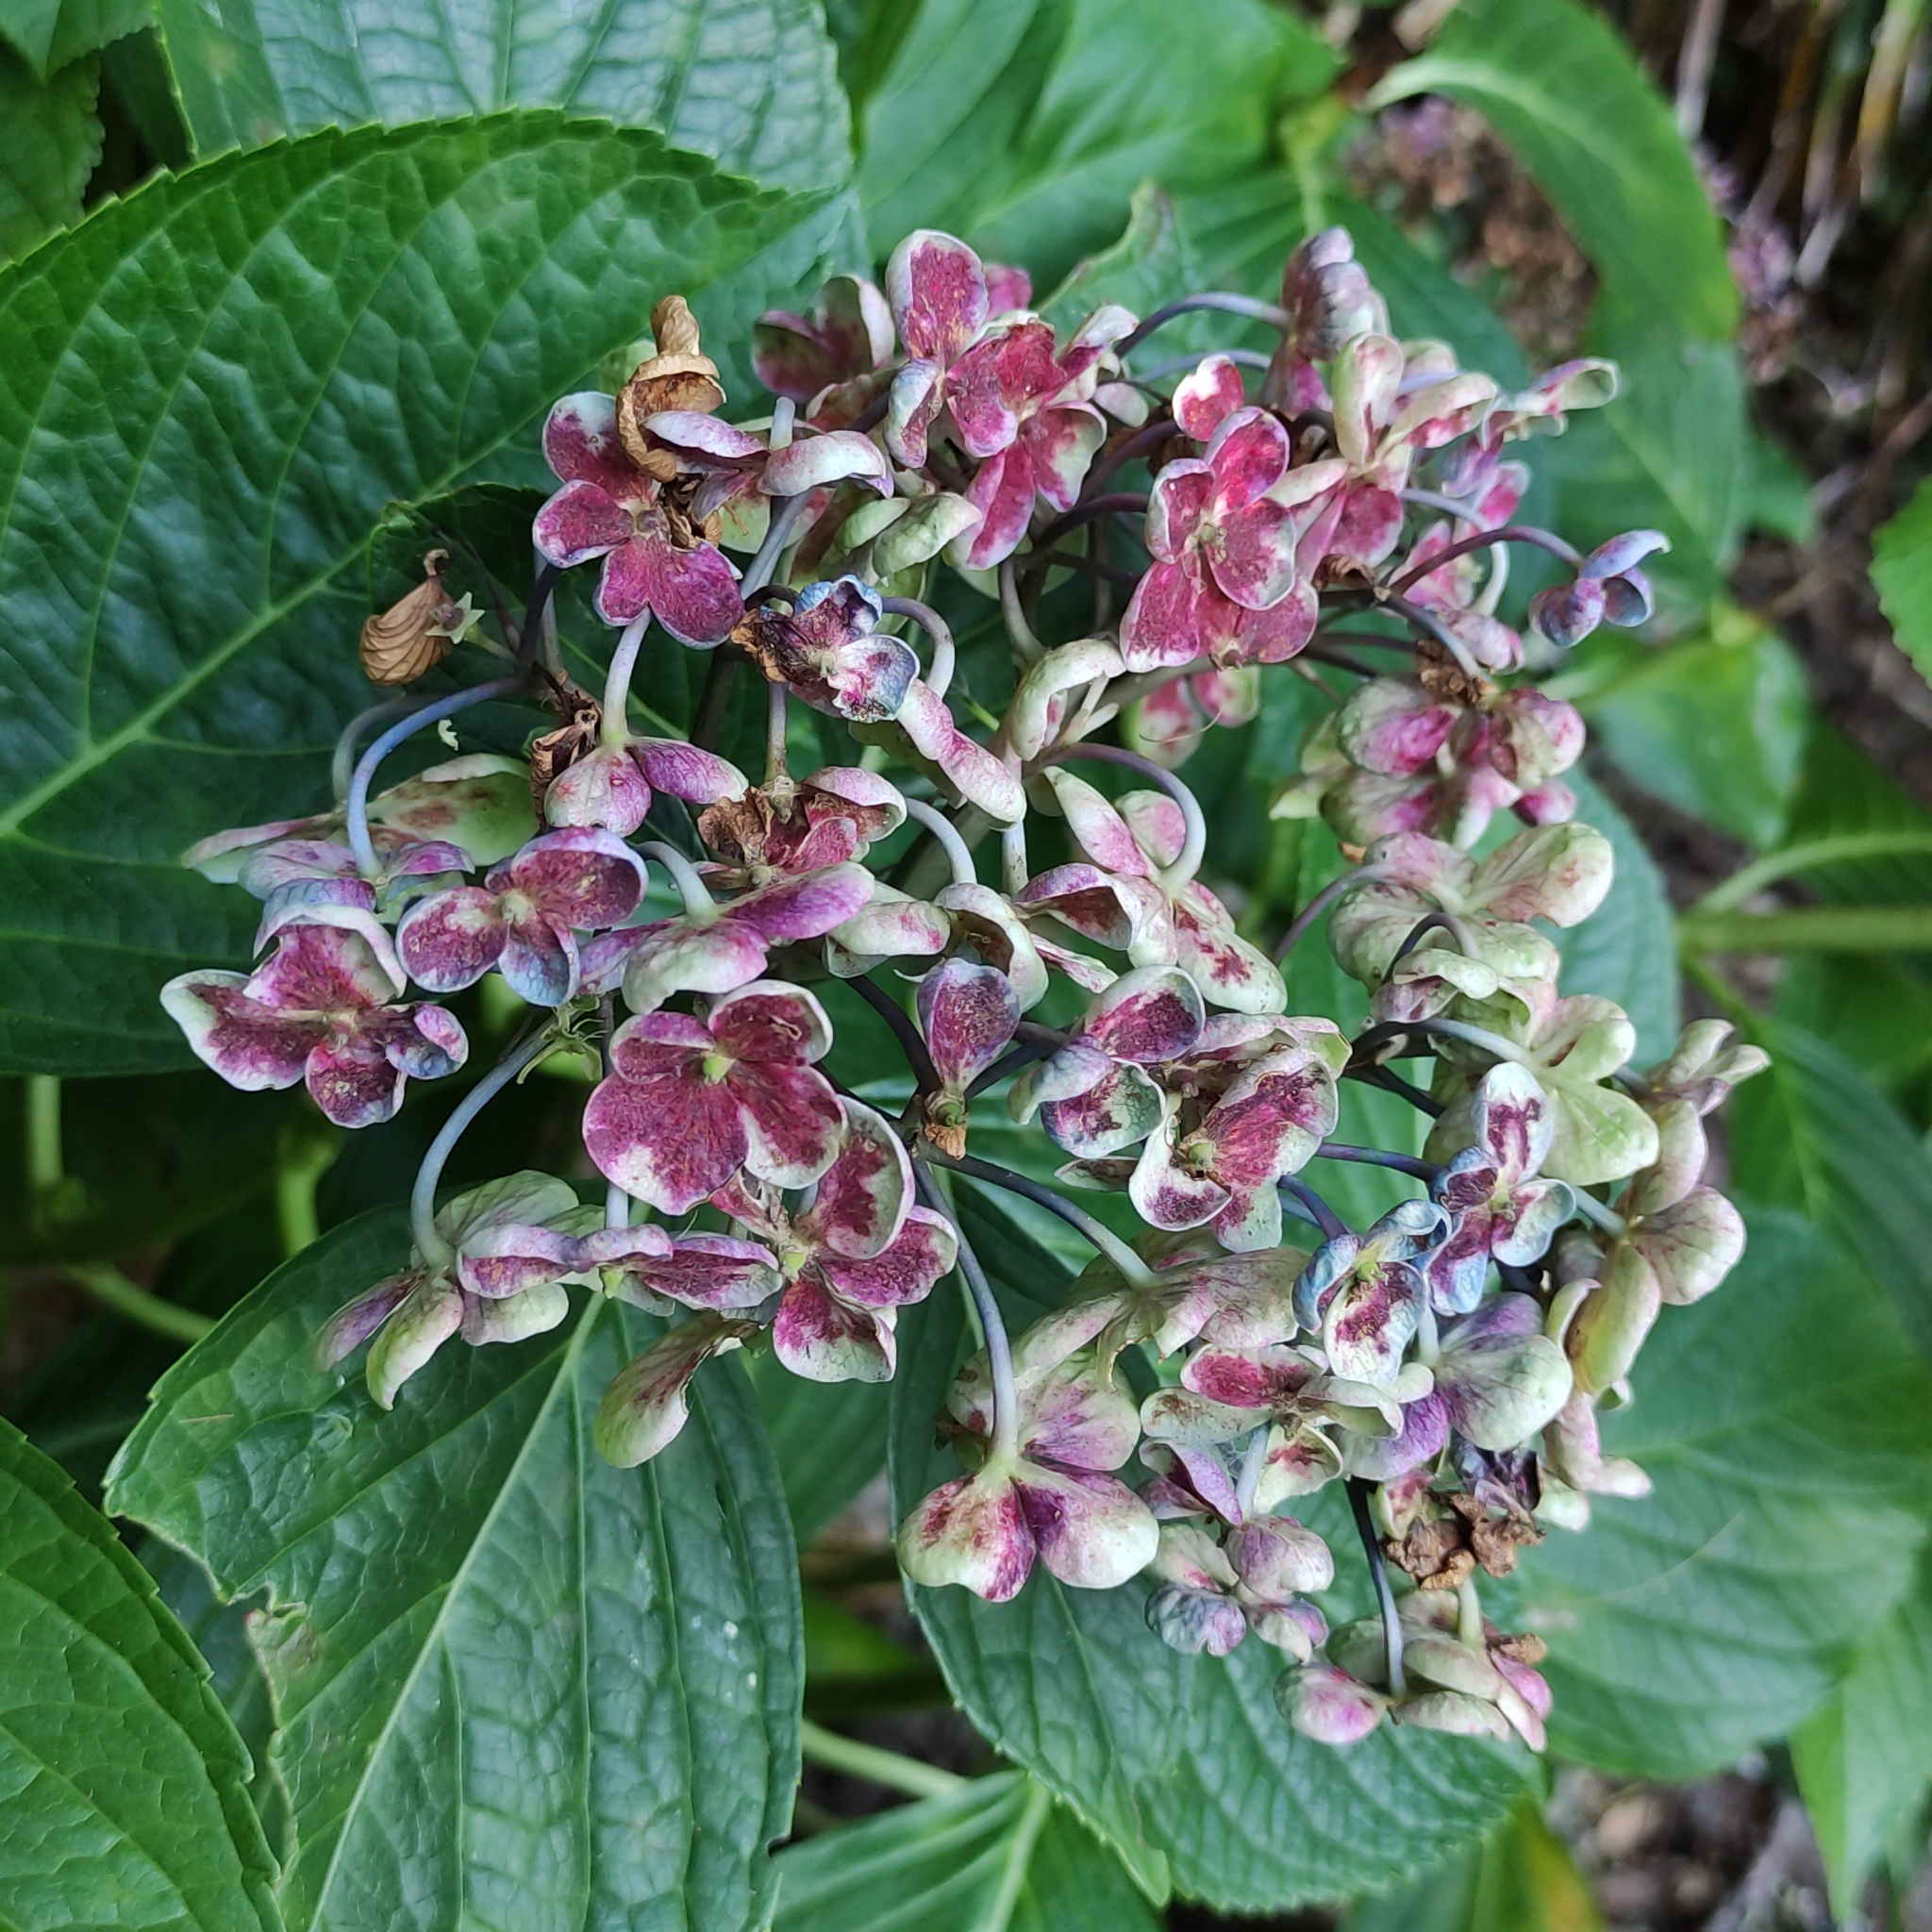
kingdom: Plantae
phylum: Tracheophyta
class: Magnoliopsida
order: Cornales
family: Hydrangeaceae
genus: Hydrangea
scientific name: Hydrangea macrophylla
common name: Hydrangea
